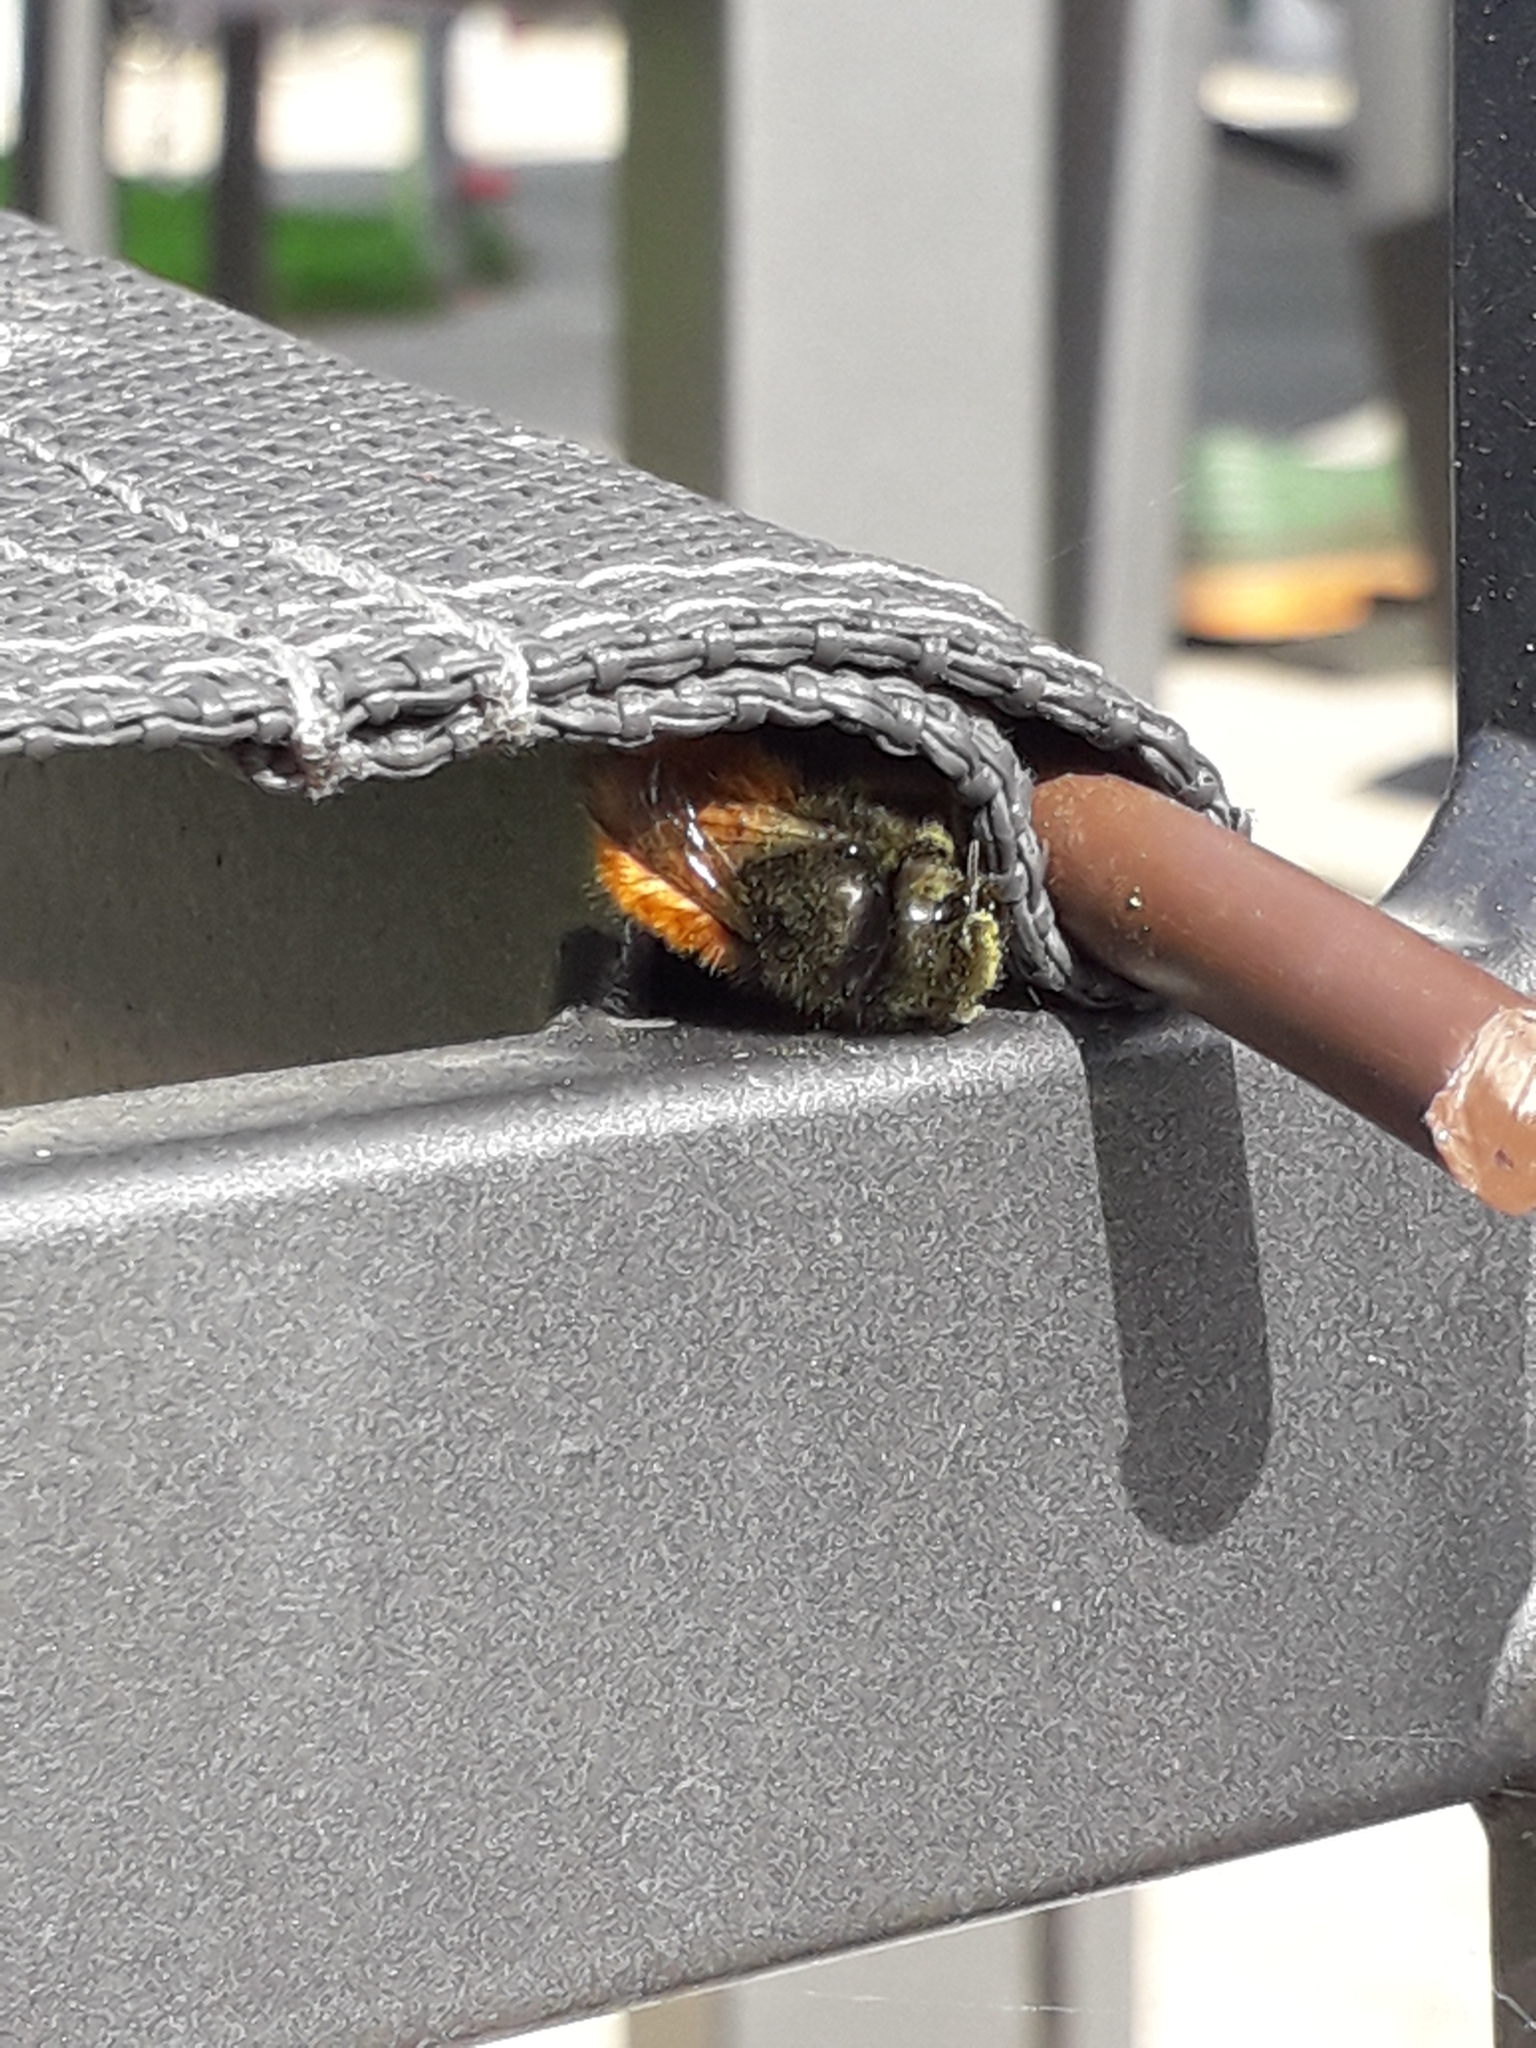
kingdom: Animalia
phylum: Arthropoda
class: Insecta
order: Hymenoptera
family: Megachilidae
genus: Osmia
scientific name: Osmia cornuta
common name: Mason bee
